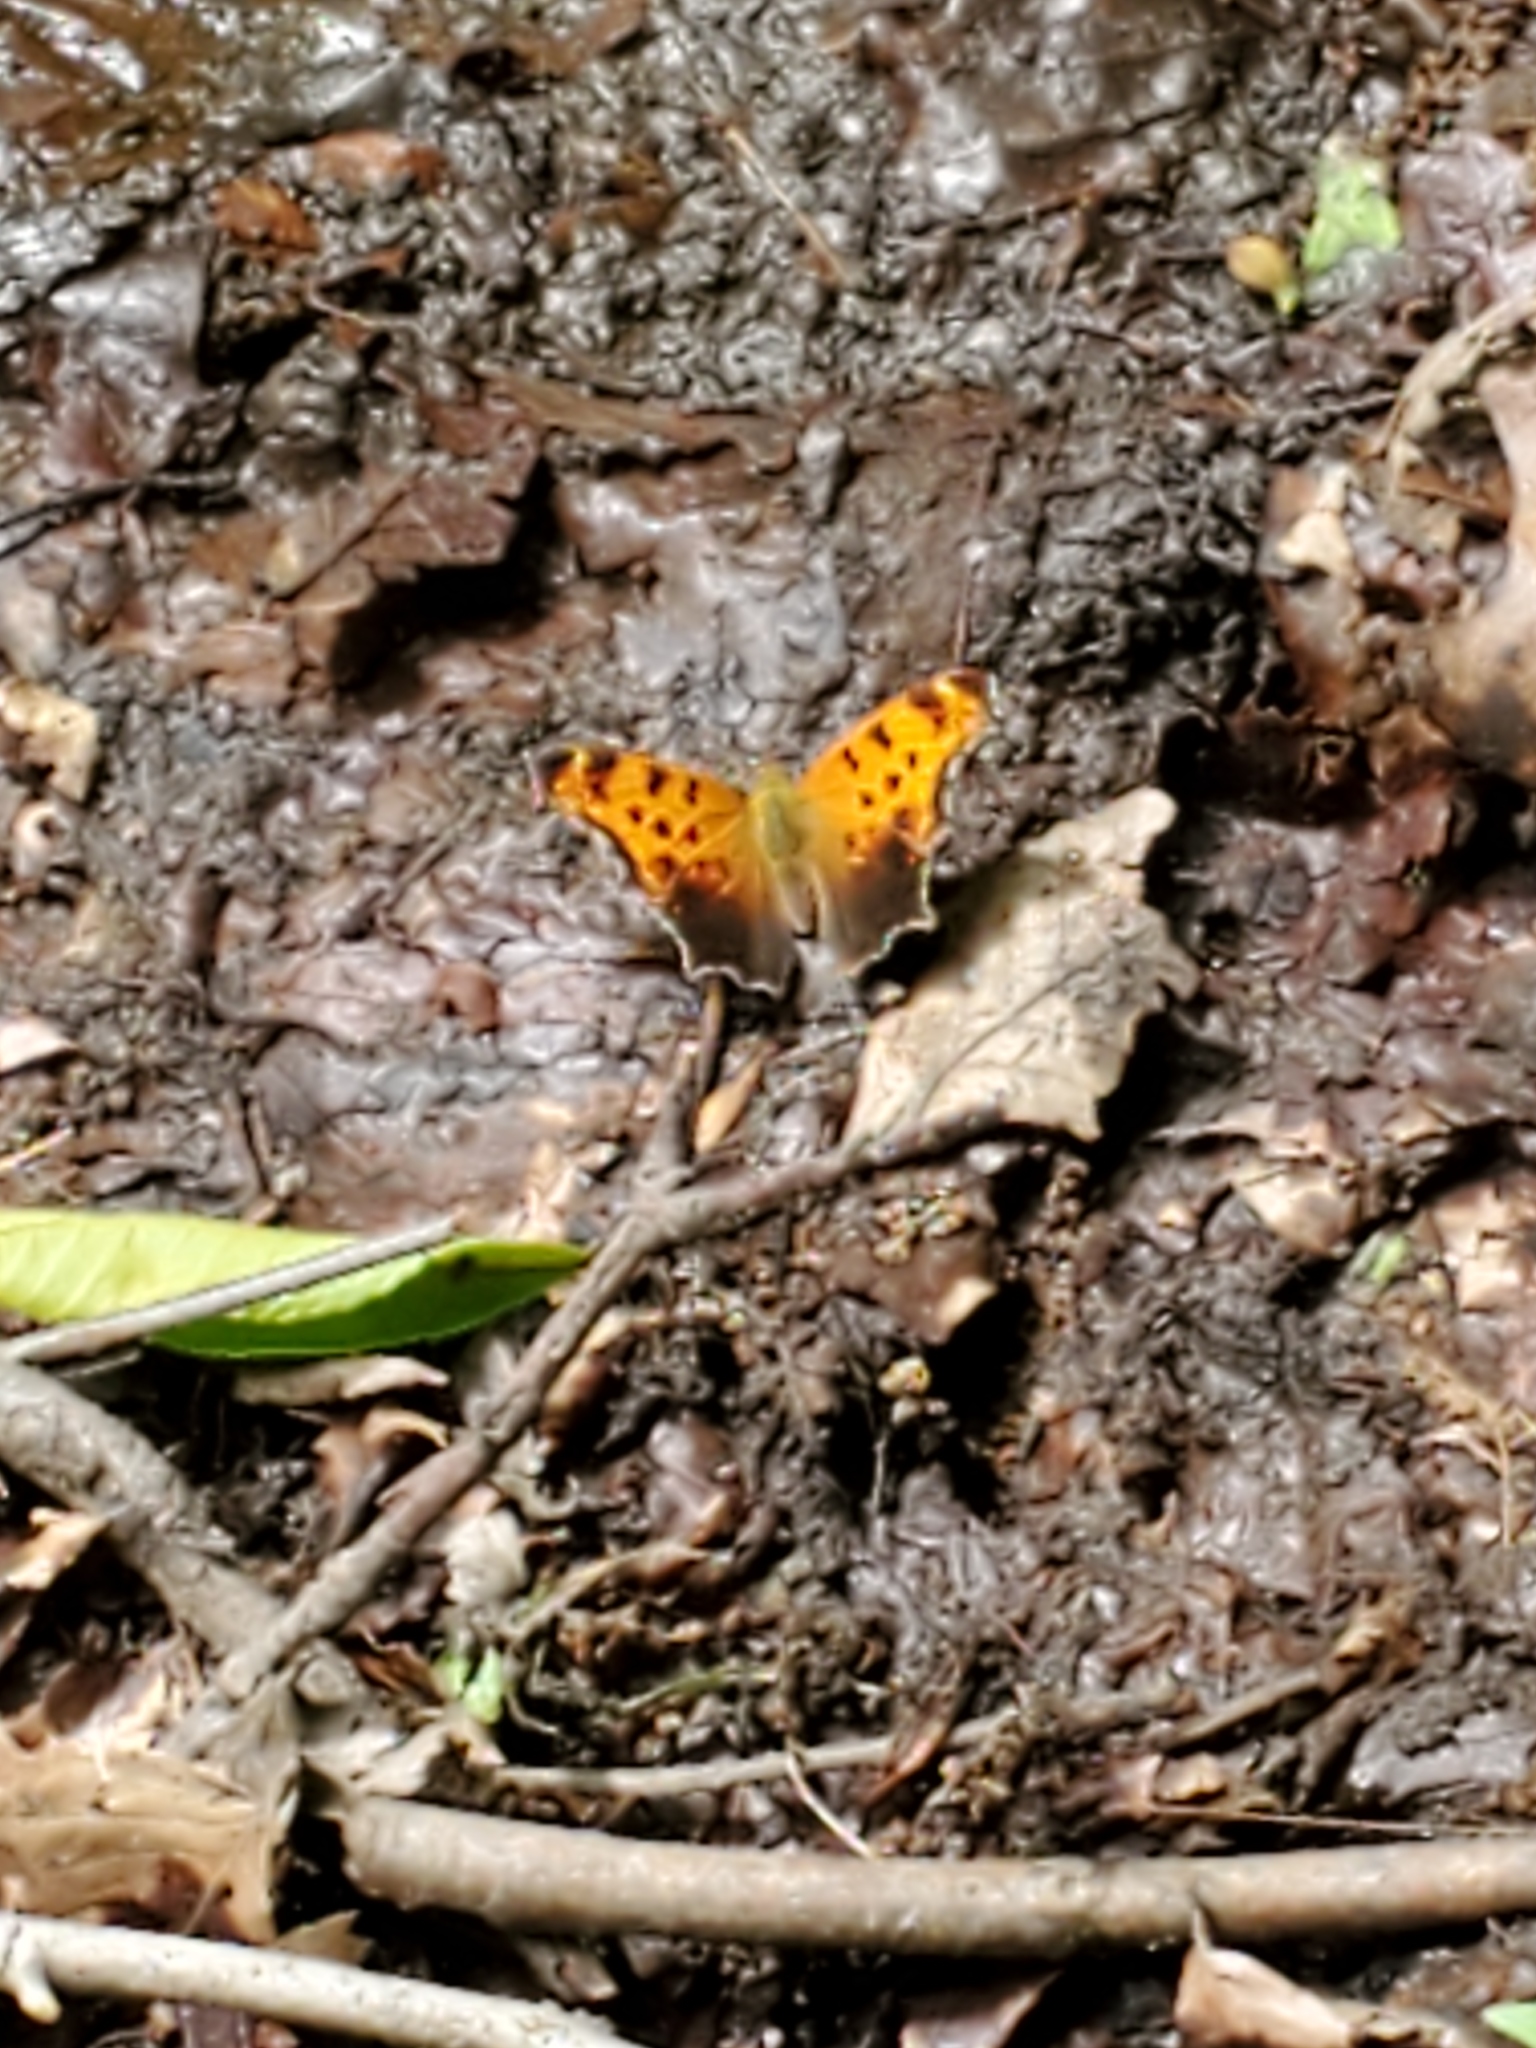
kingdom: Animalia
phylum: Arthropoda
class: Insecta
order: Lepidoptera
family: Nymphalidae
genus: Polygonia
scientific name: Polygonia comma
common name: Eastern comma
